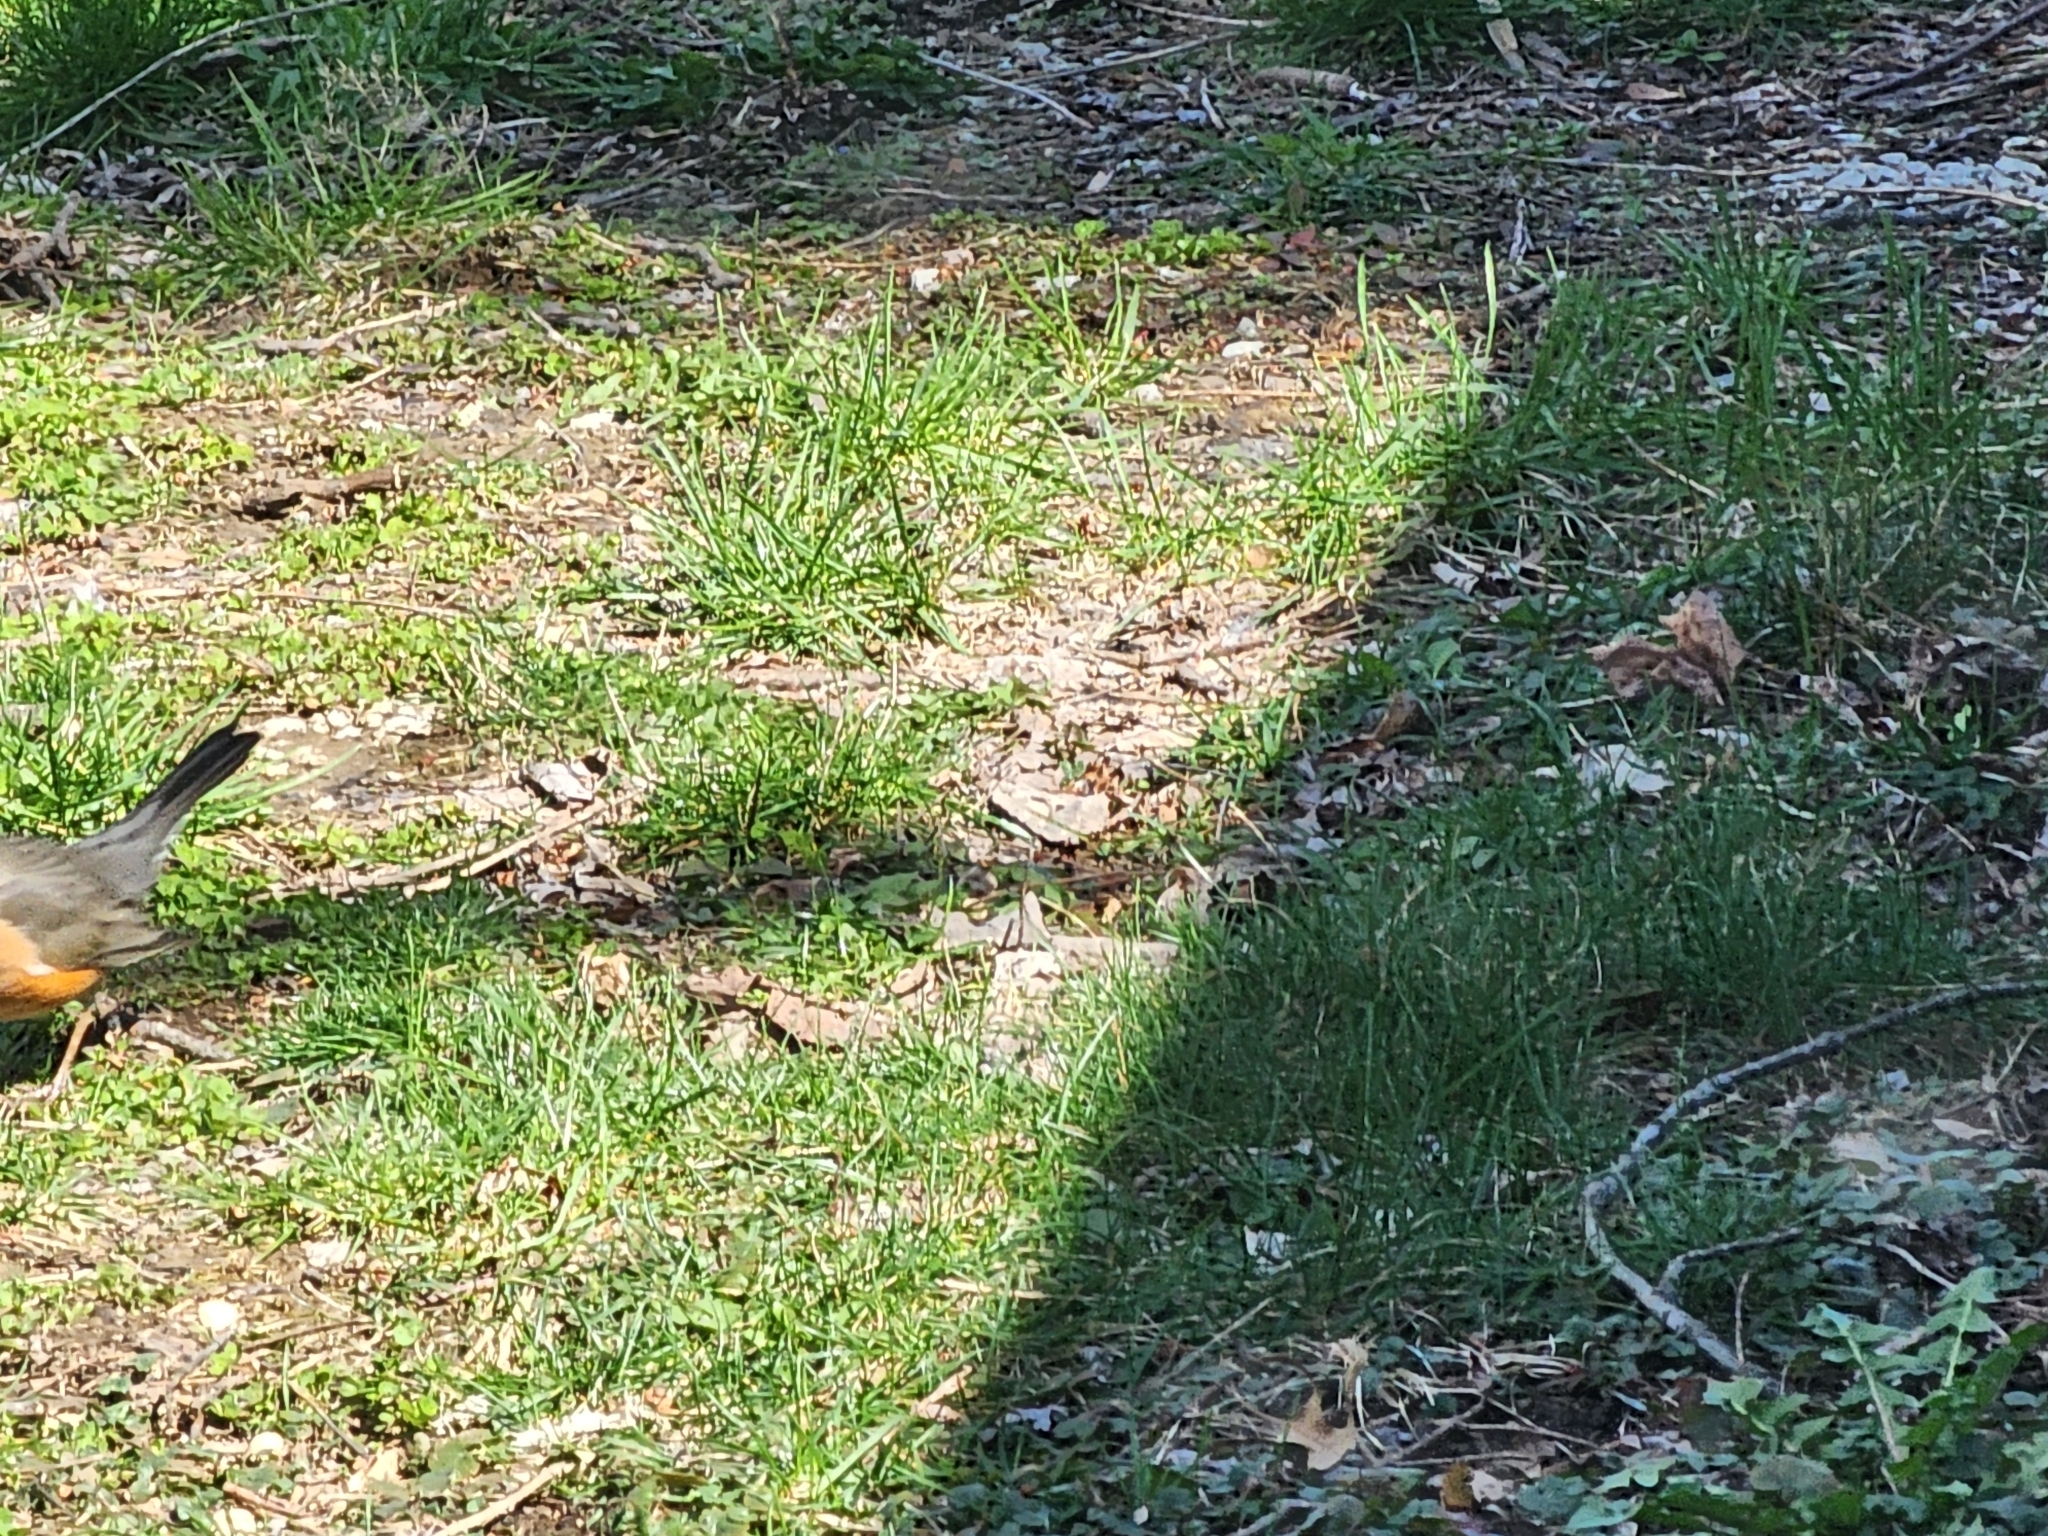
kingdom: Animalia
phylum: Chordata
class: Aves
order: Passeriformes
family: Turdidae
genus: Turdus
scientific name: Turdus migratorius
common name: American robin
